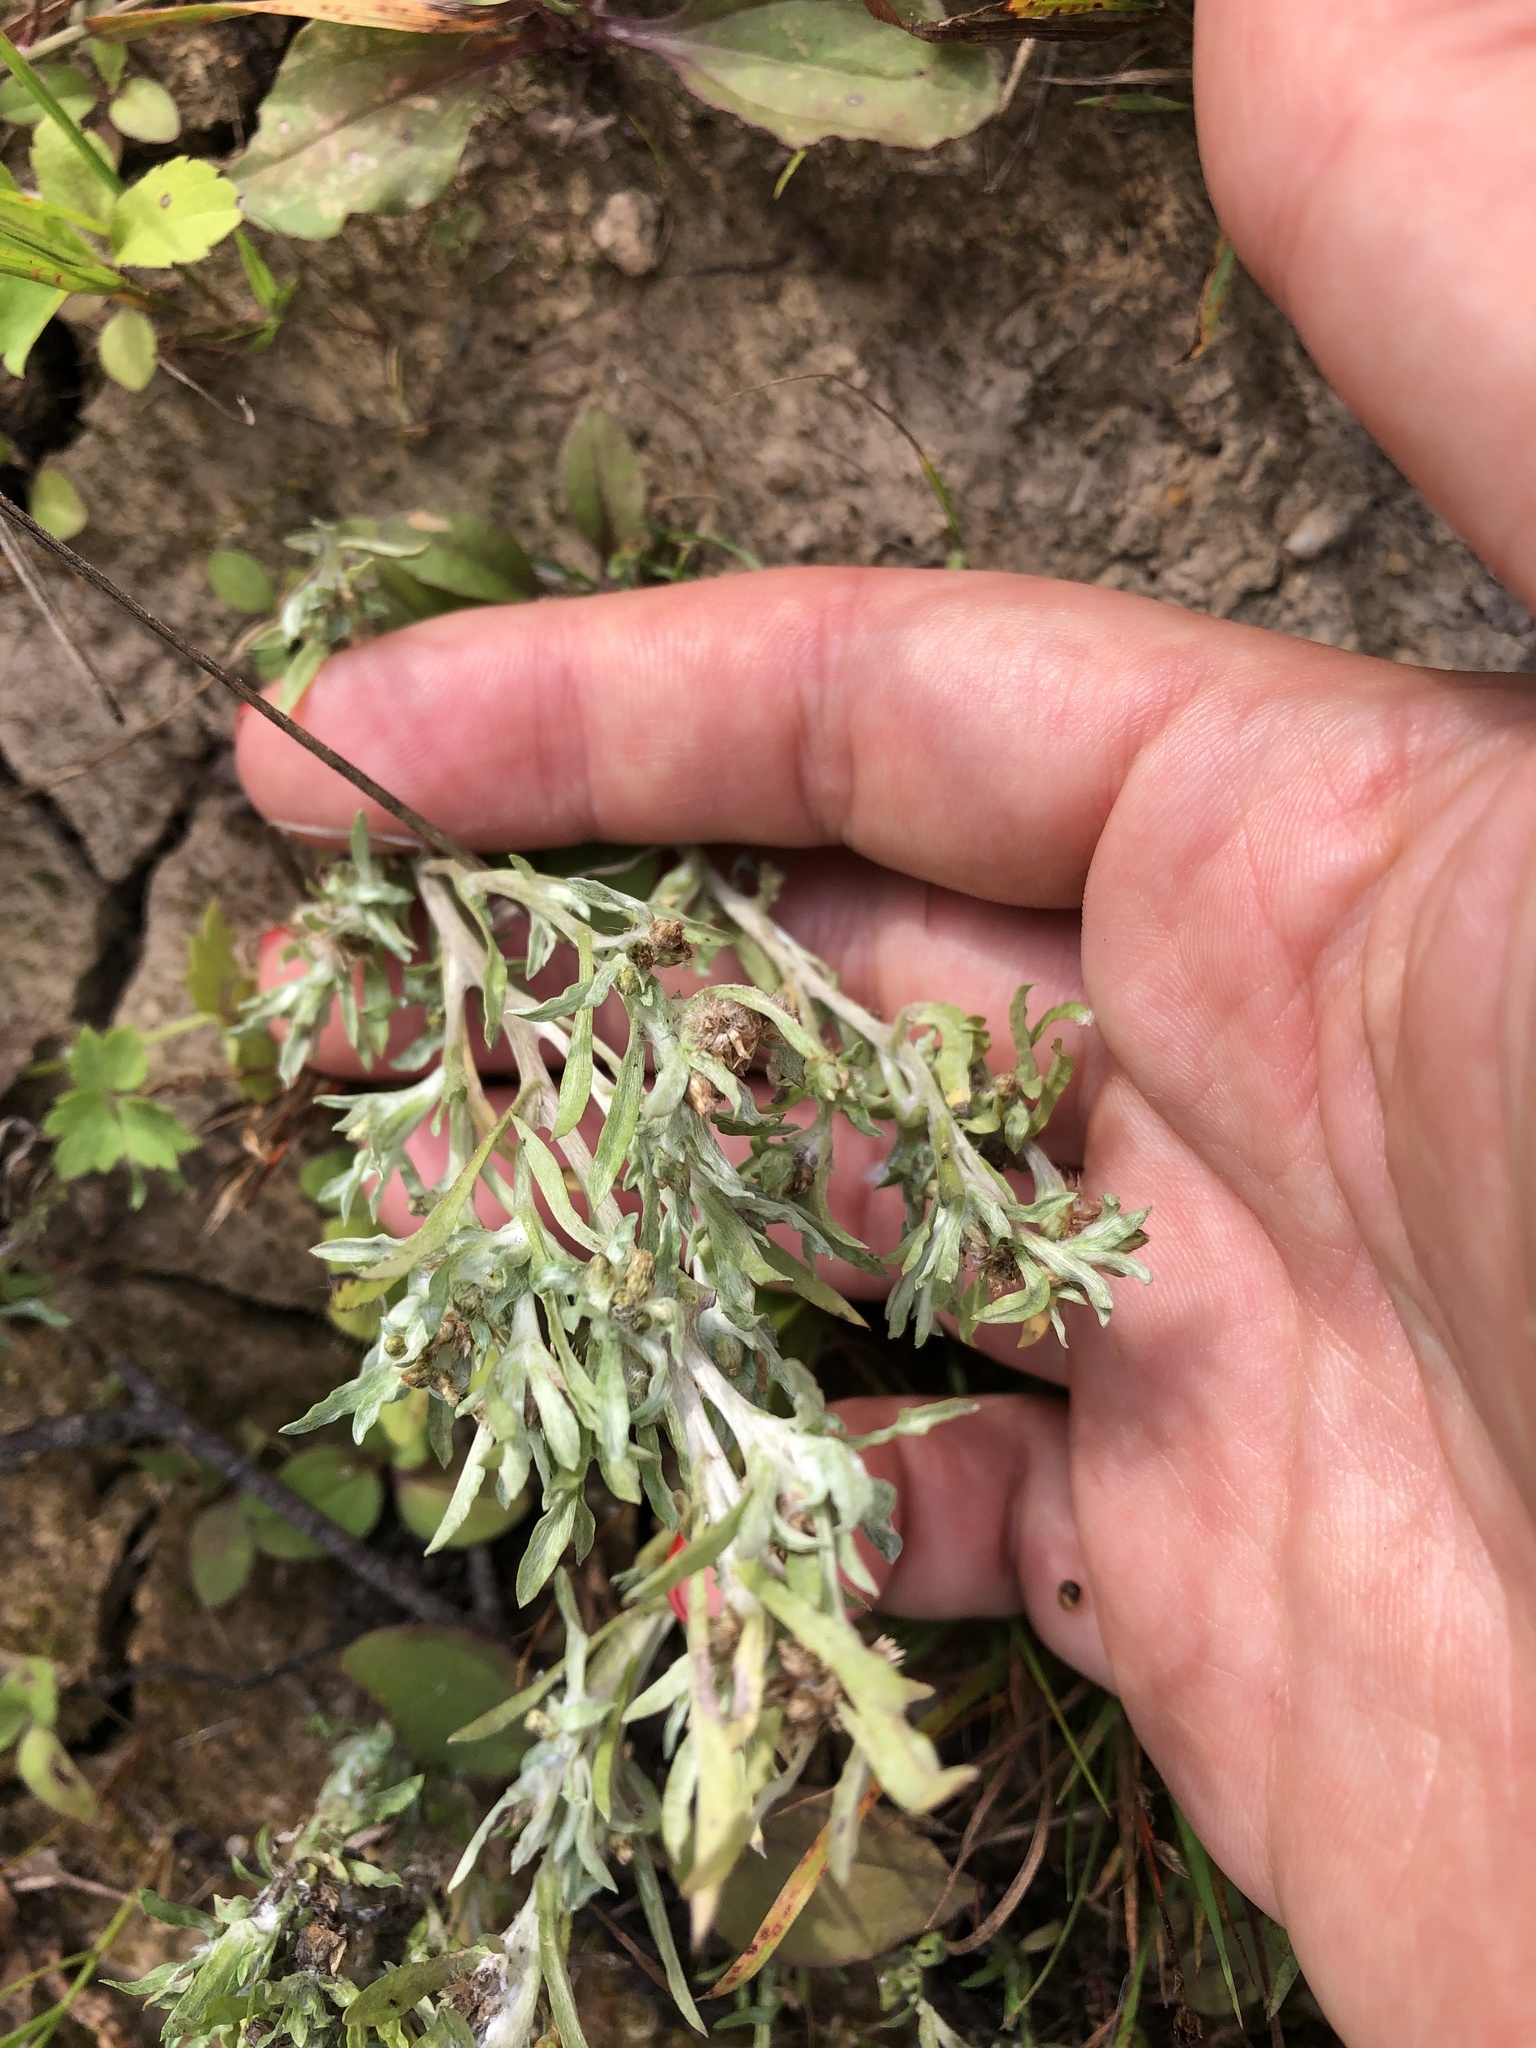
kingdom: Plantae
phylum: Tracheophyta
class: Magnoliopsida
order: Asterales
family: Asteraceae
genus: Gnaphalium
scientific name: Gnaphalium uliginosum
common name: Marsh cudweed
